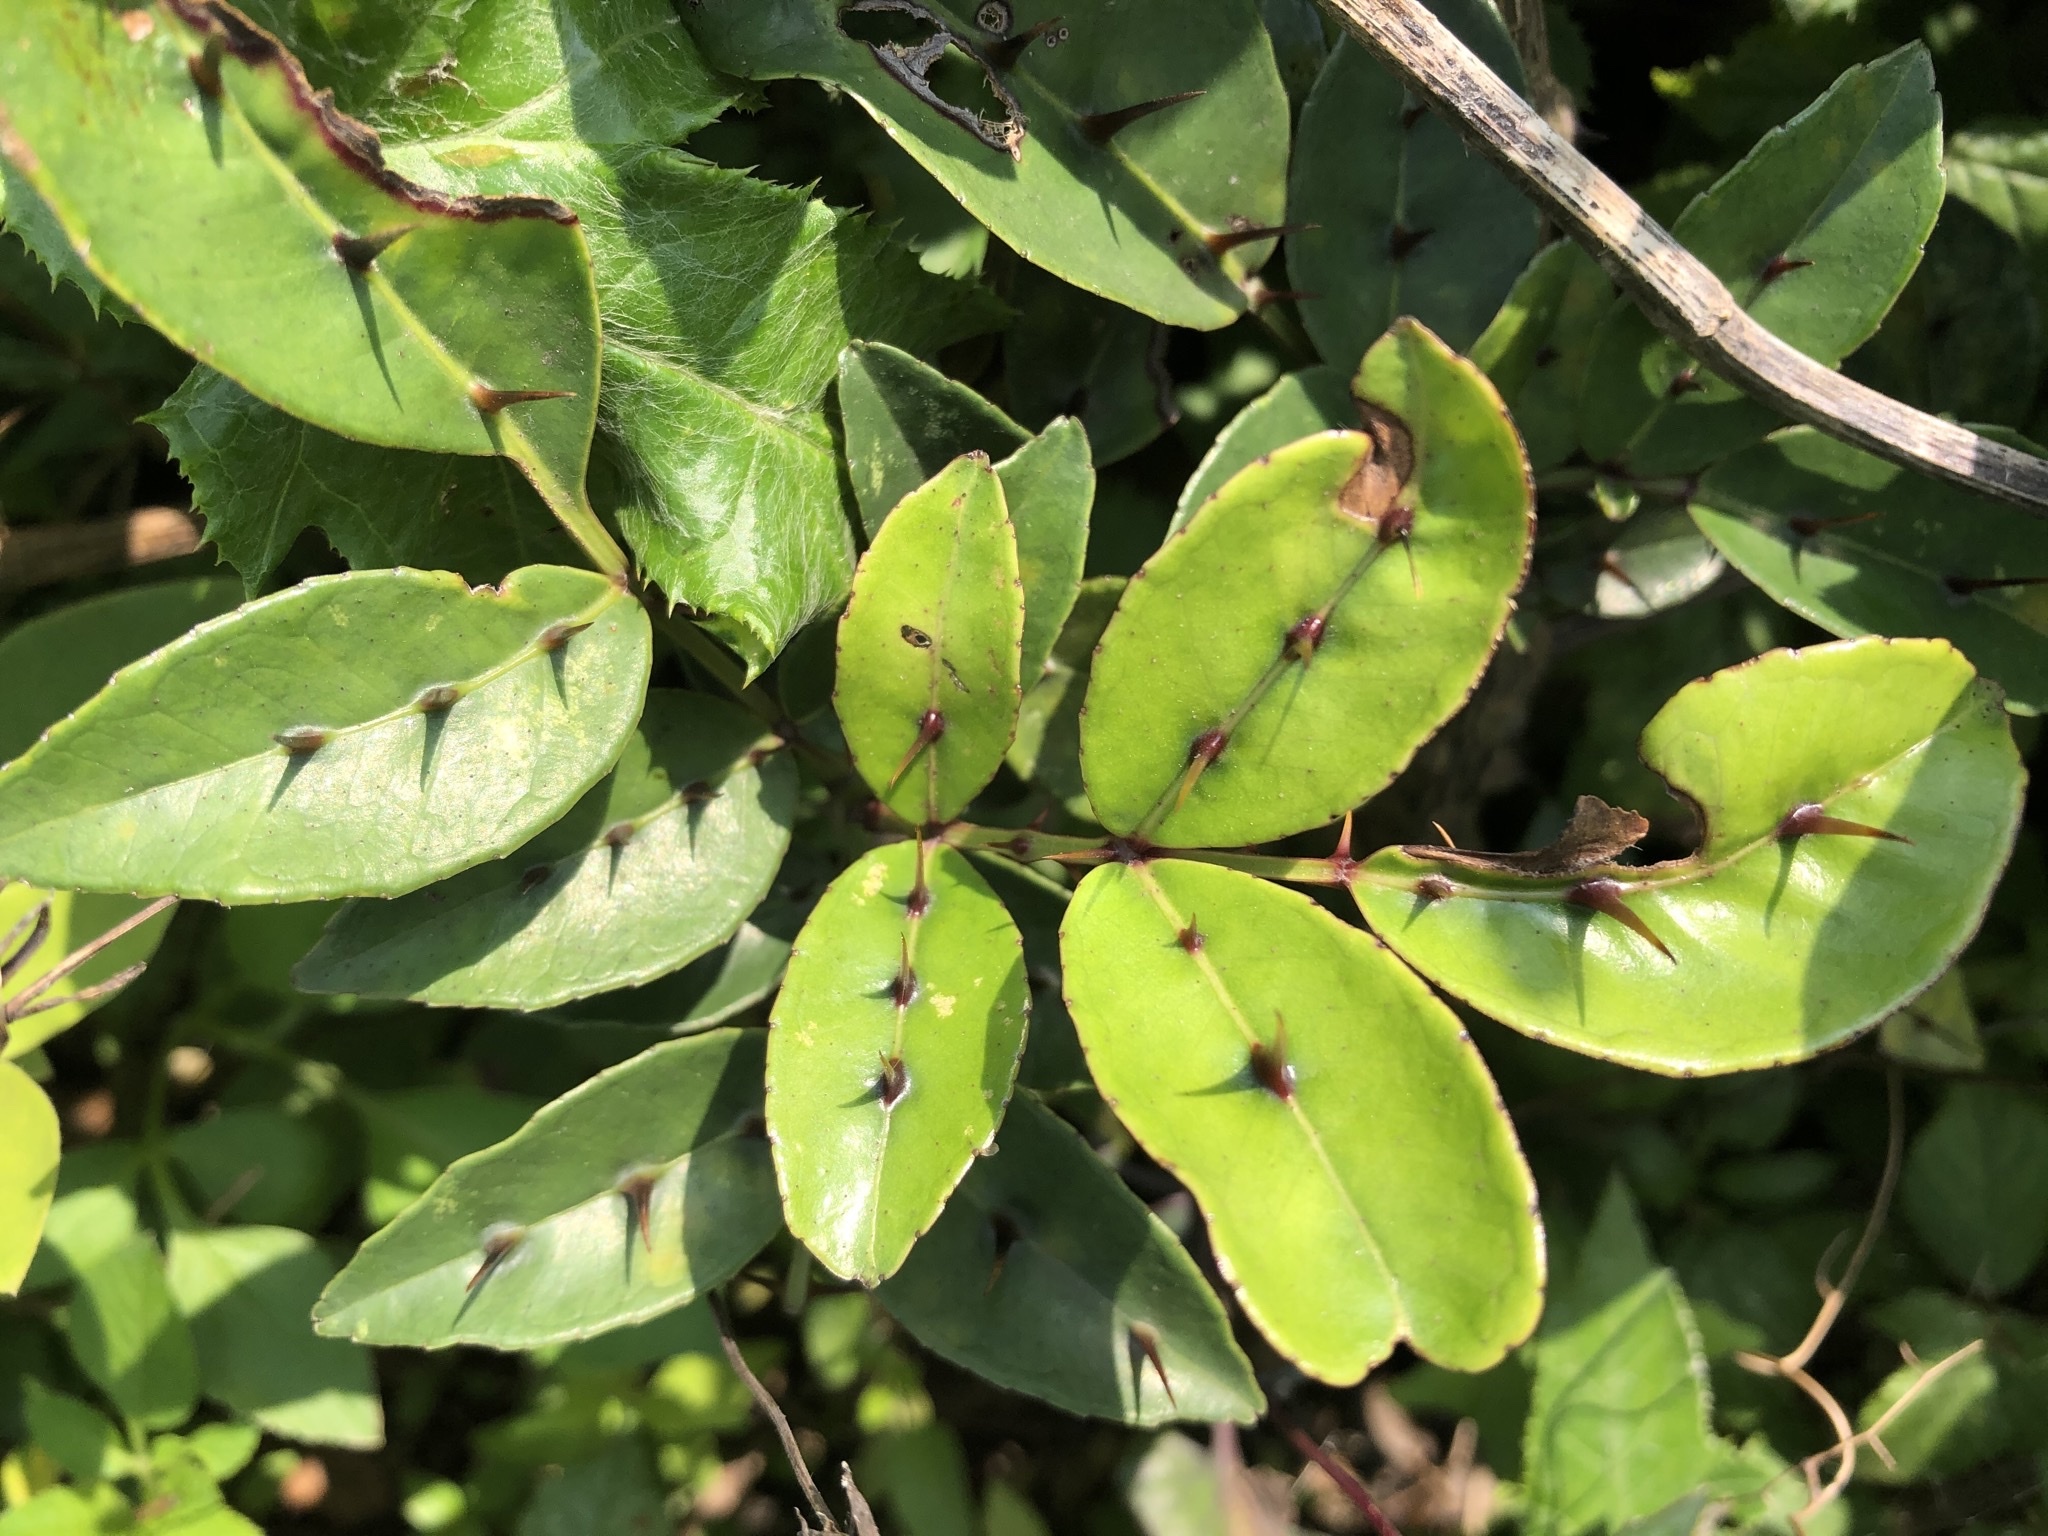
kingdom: Plantae
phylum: Tracheophyta
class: Magnoliopsida
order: Sapindales
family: Rutaceae
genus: Zanthoxylum
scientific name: Zanthoxylum nitidum
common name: Shiny-leaf prickly-ash
